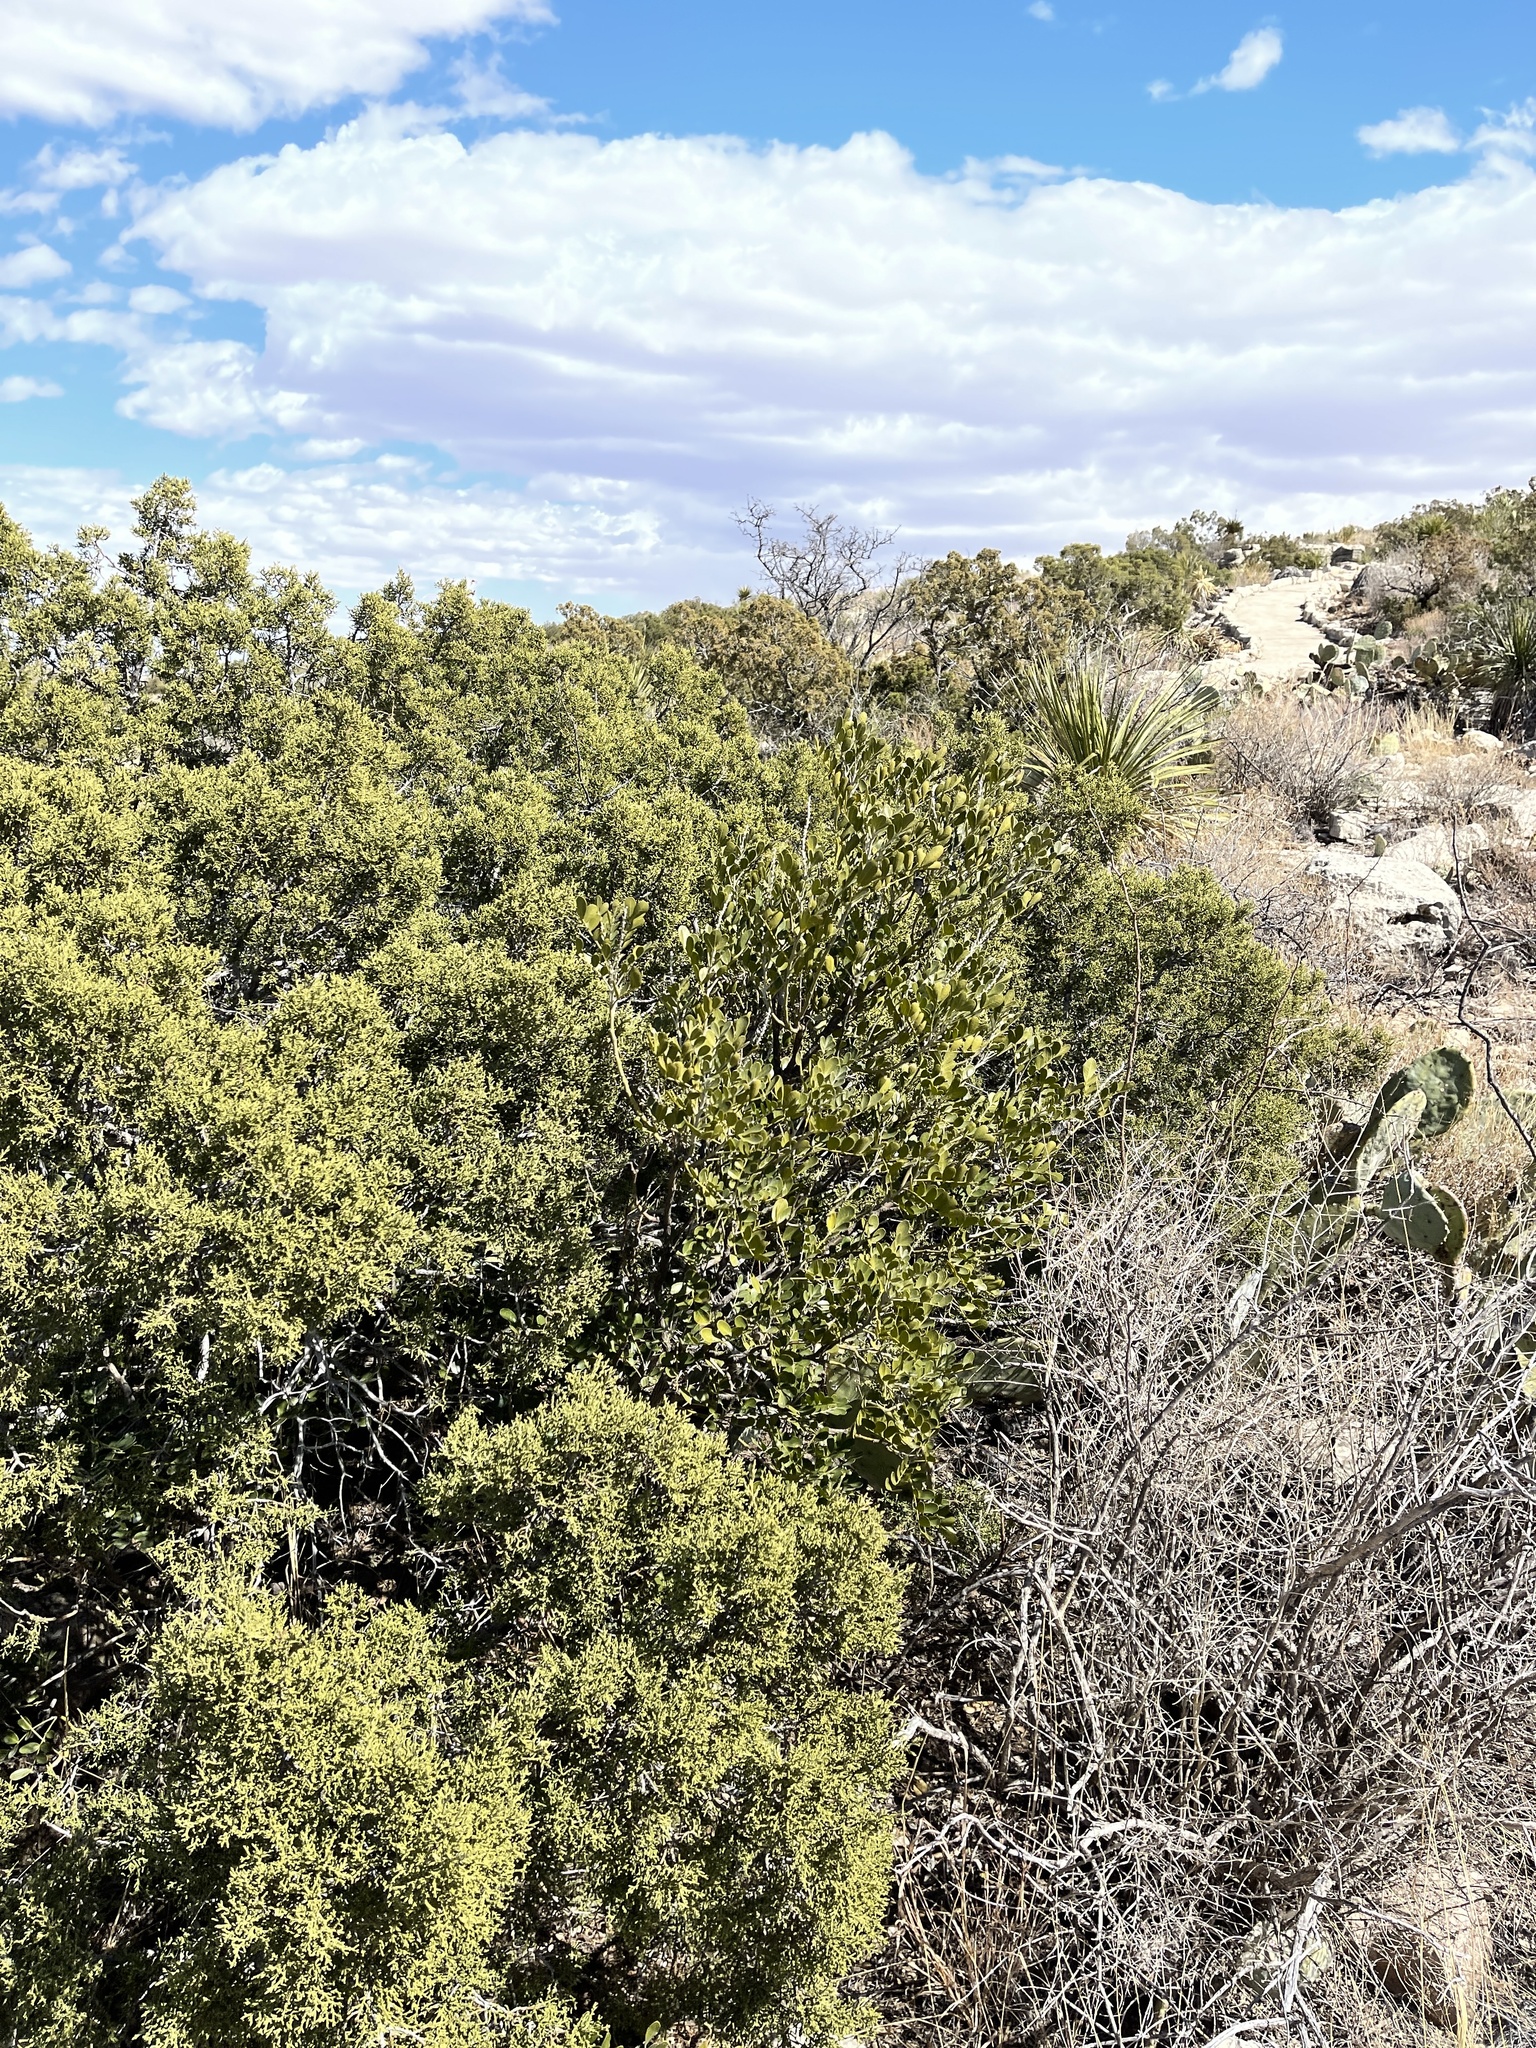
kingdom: Plantae
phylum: Tracheophyta
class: Magnoliopsida
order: Fabales
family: Fabaceae
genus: Dermatophyllum
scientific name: Dermatophyllum secundiflorum
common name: Texas-mountain-laurel
